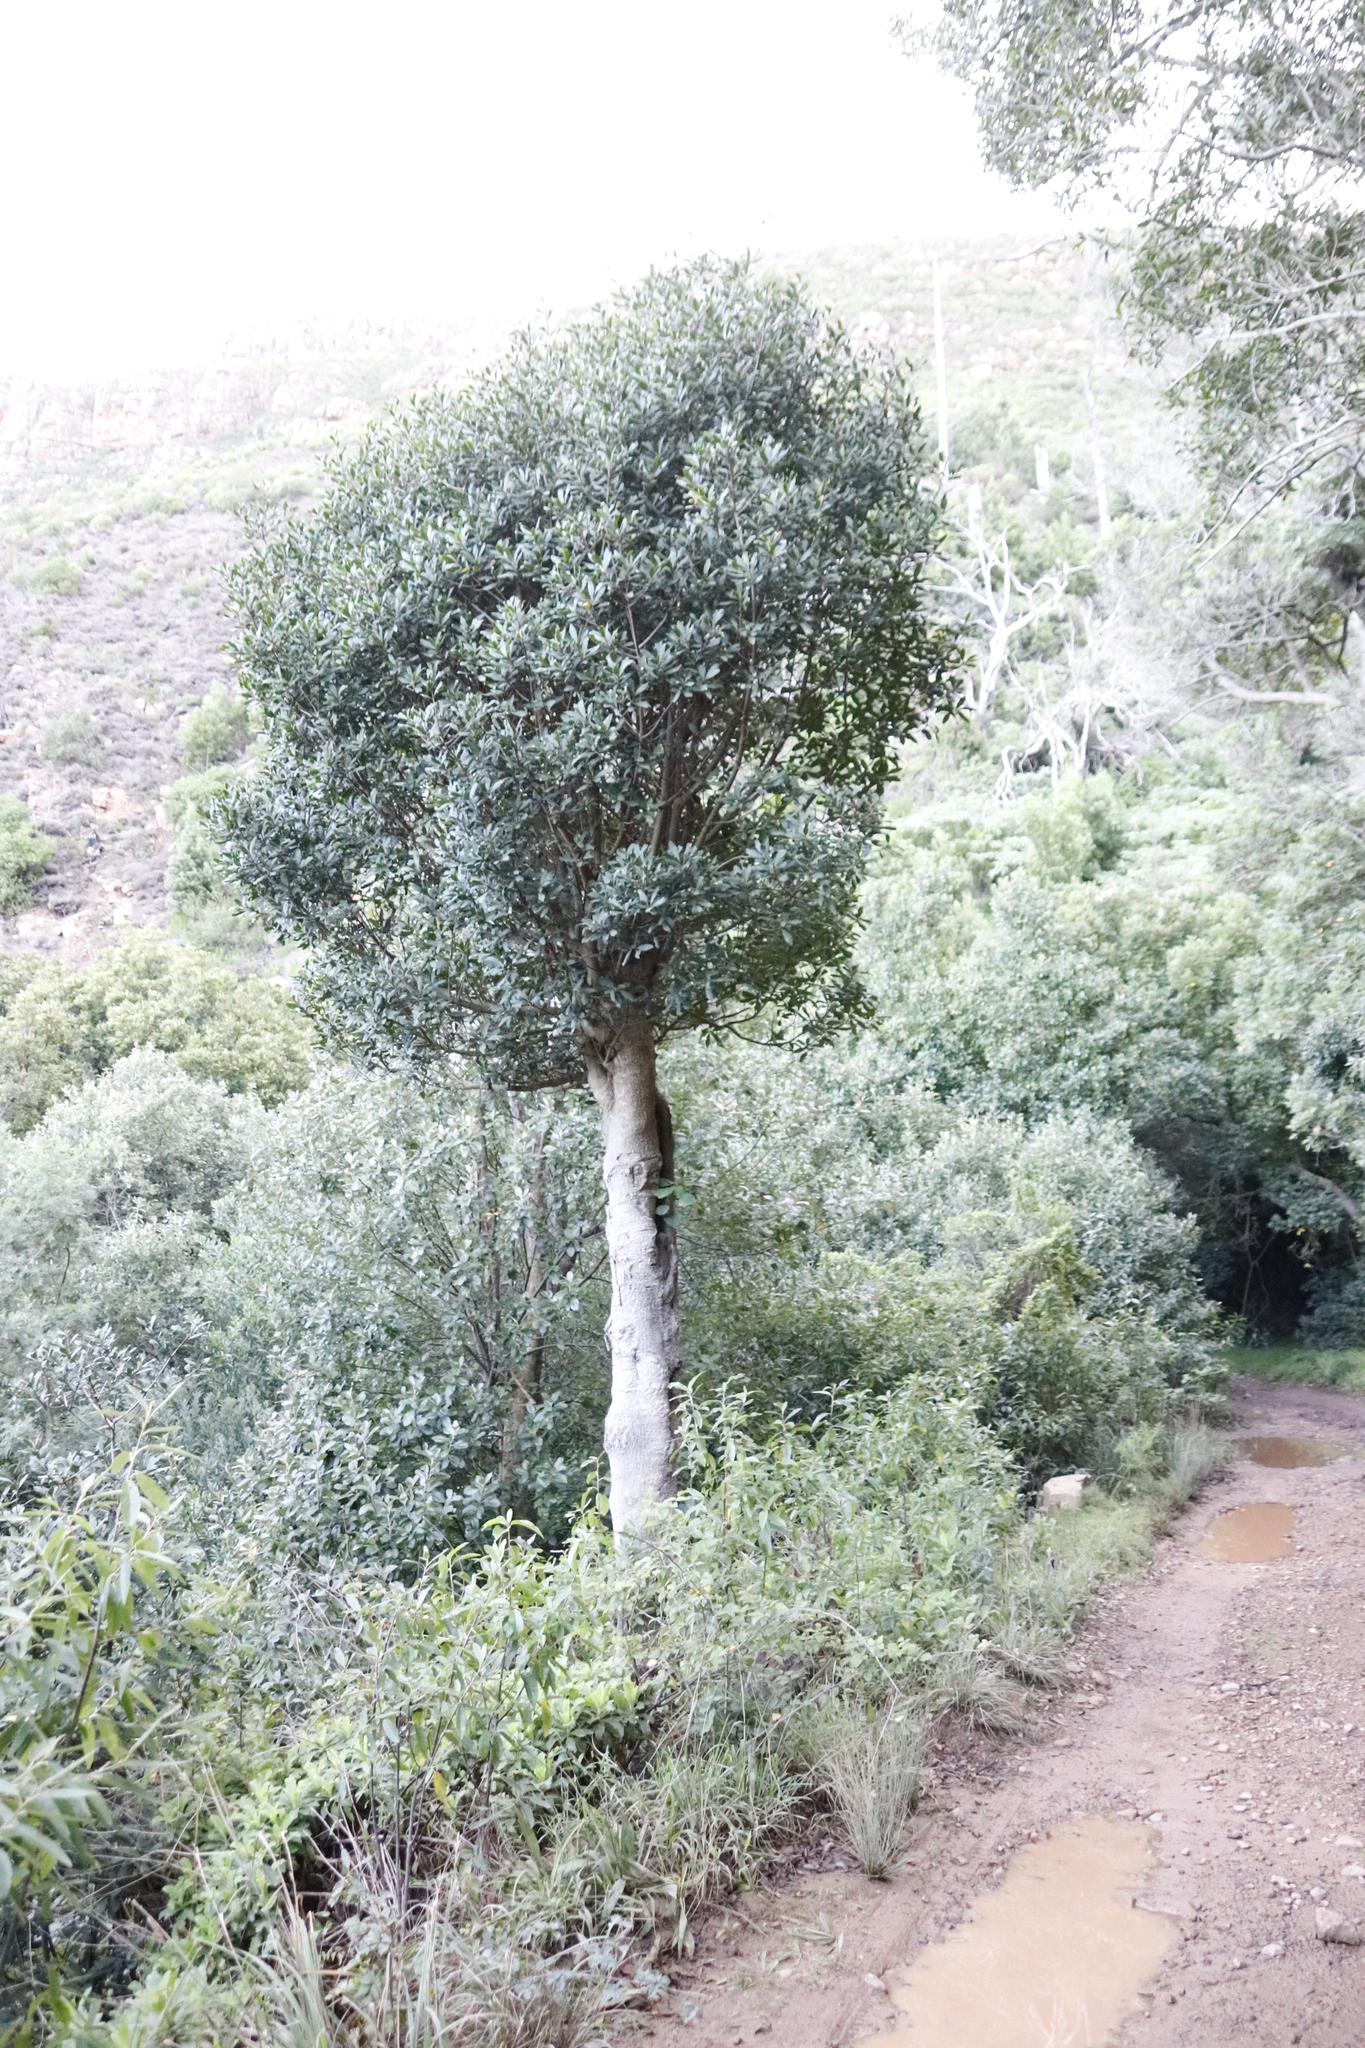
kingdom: Plantae
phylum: Tracheophyta
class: Magnoliopsida
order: Ericales
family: Primulaceae
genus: Myrsine
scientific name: Myrsine melanophloeos
